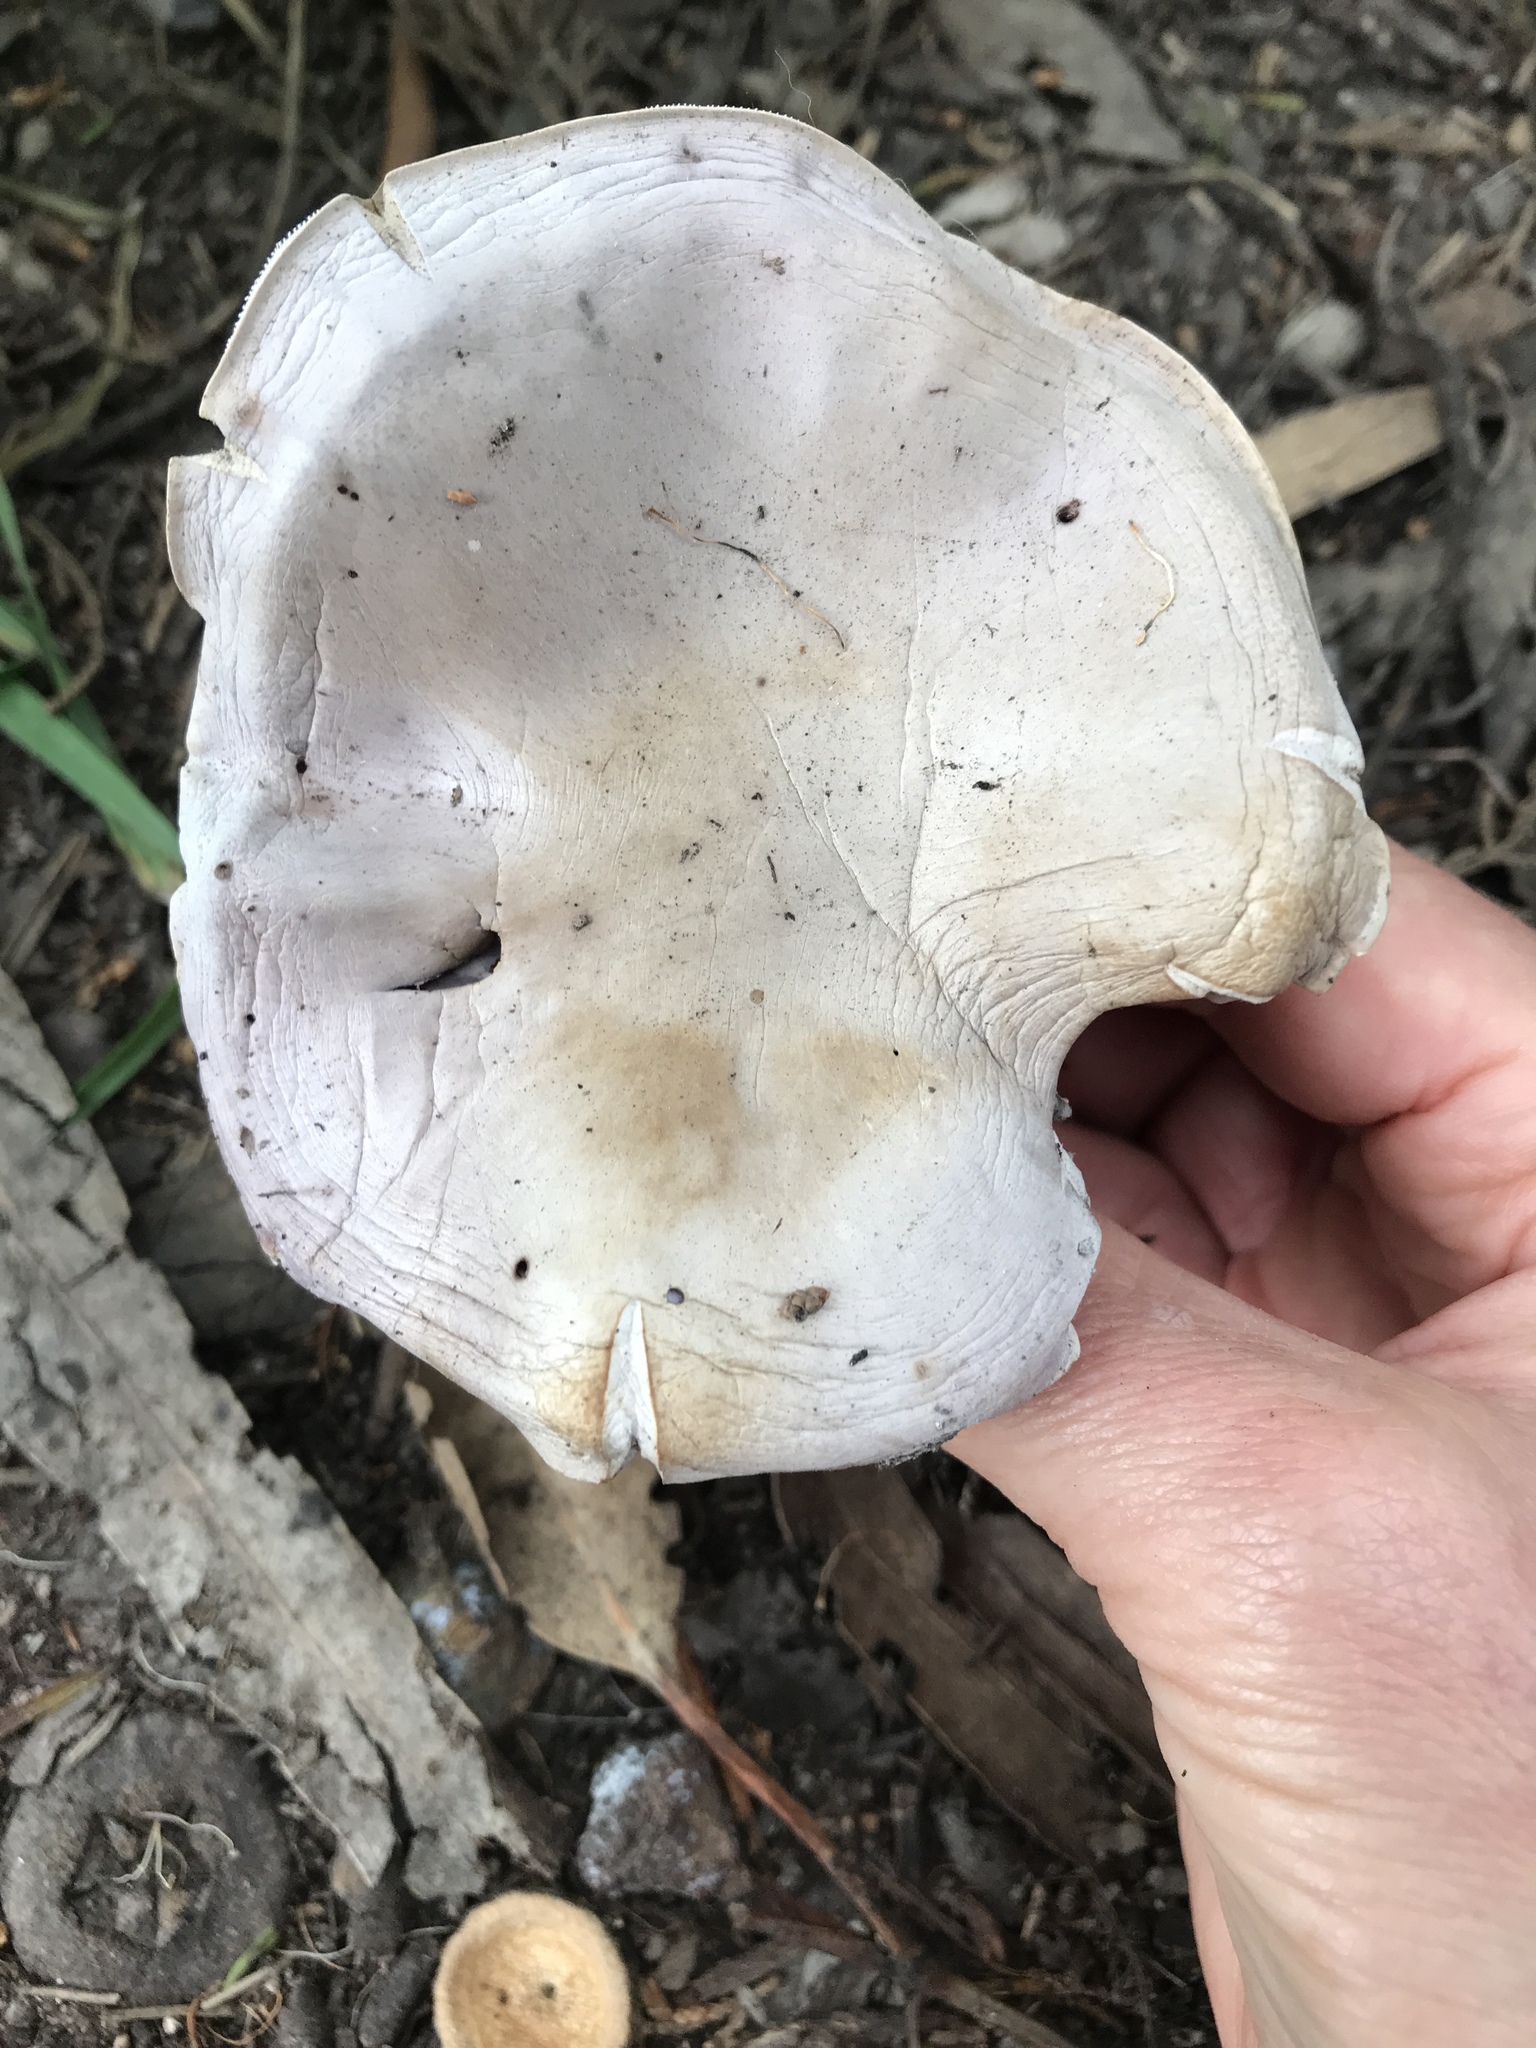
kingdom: Fungi
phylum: Basidiomycota
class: Agaricomycetes
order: Agaricales
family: Tricholomataceae
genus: Collybia
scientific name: Collybia
